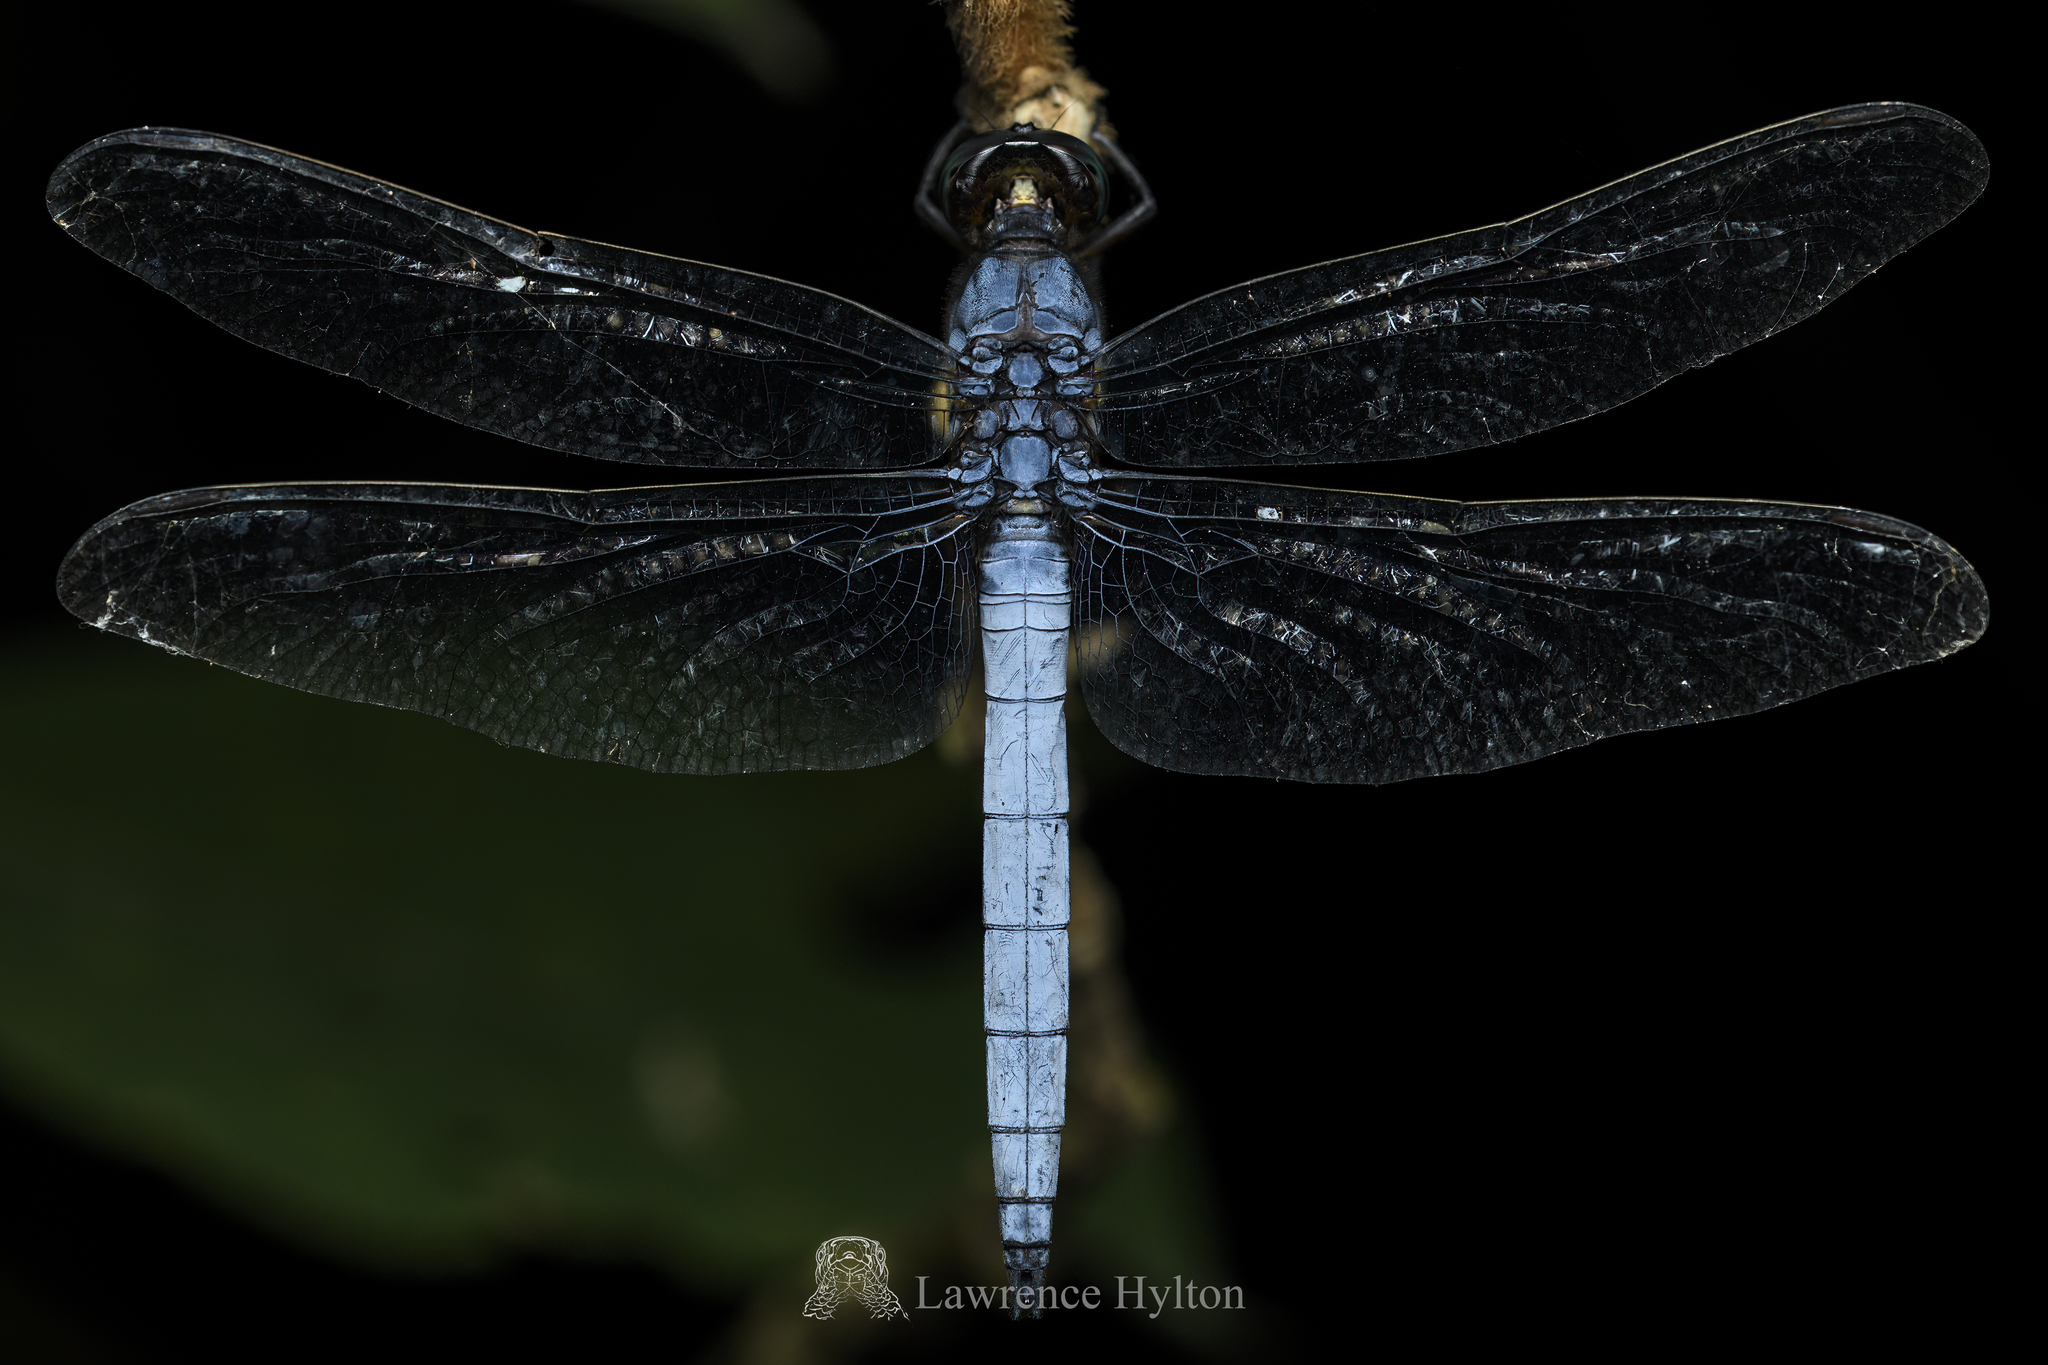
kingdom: Animalia
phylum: Arthropoda
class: Insecta
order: Odonata
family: Libellulidae
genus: Orthetrum
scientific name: Orthetrum glaucum
